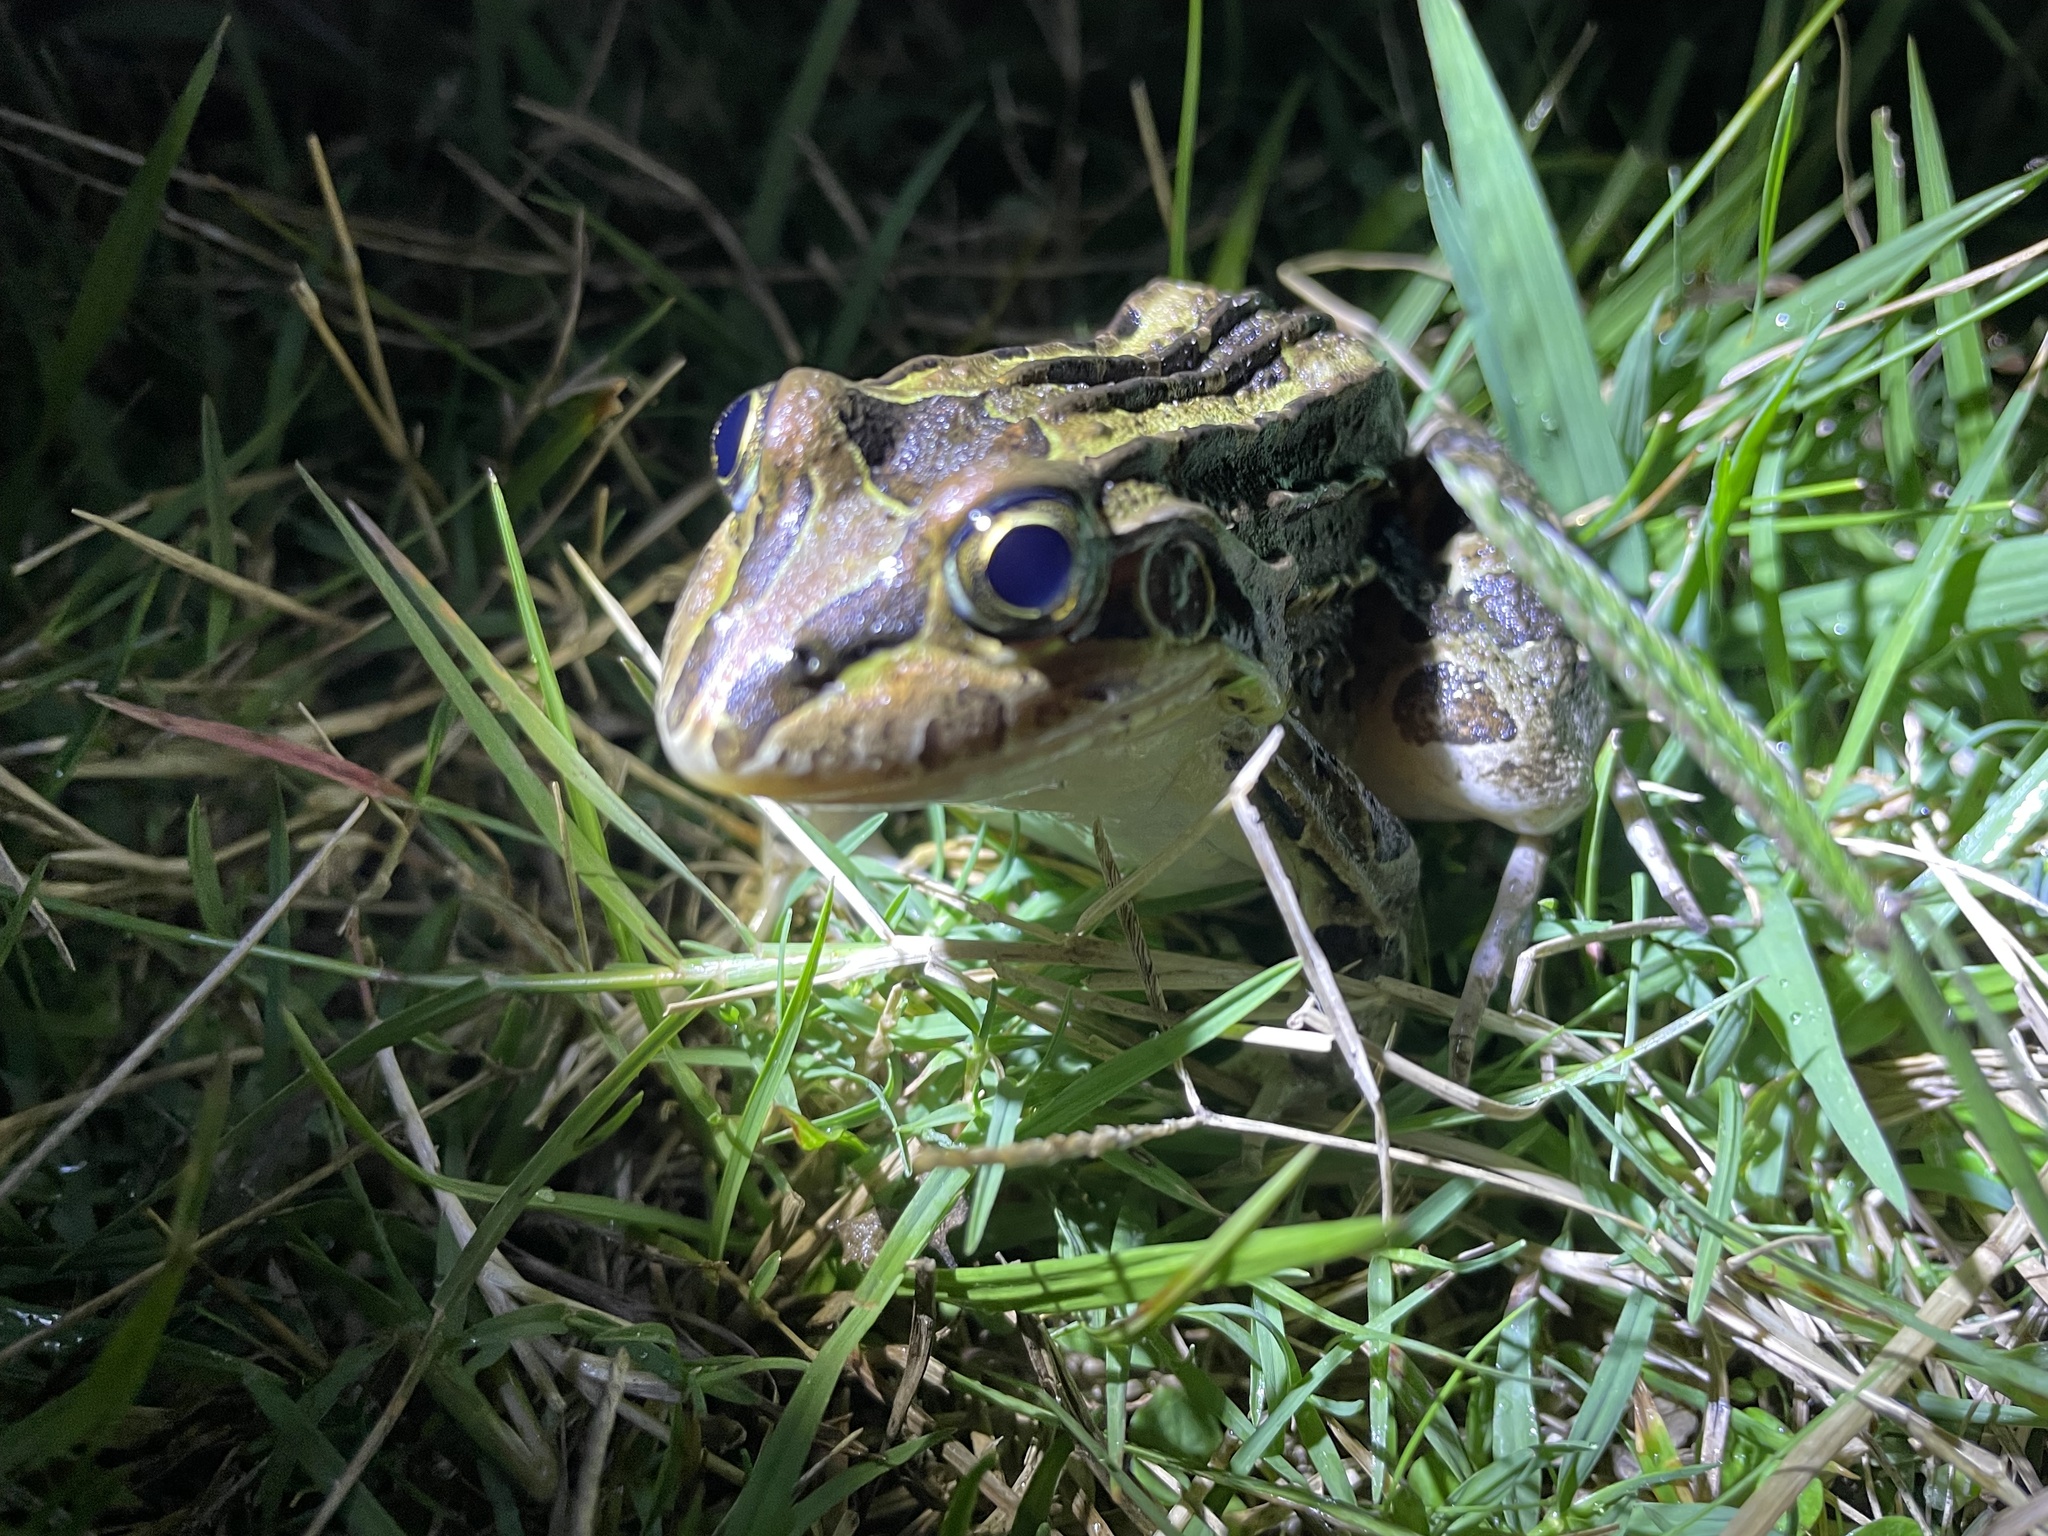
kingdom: Animalia
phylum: Chordata
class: Amphibia
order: Anura
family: Leptodactylidae
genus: Leptodactylus
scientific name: Leptodactylus luctator
